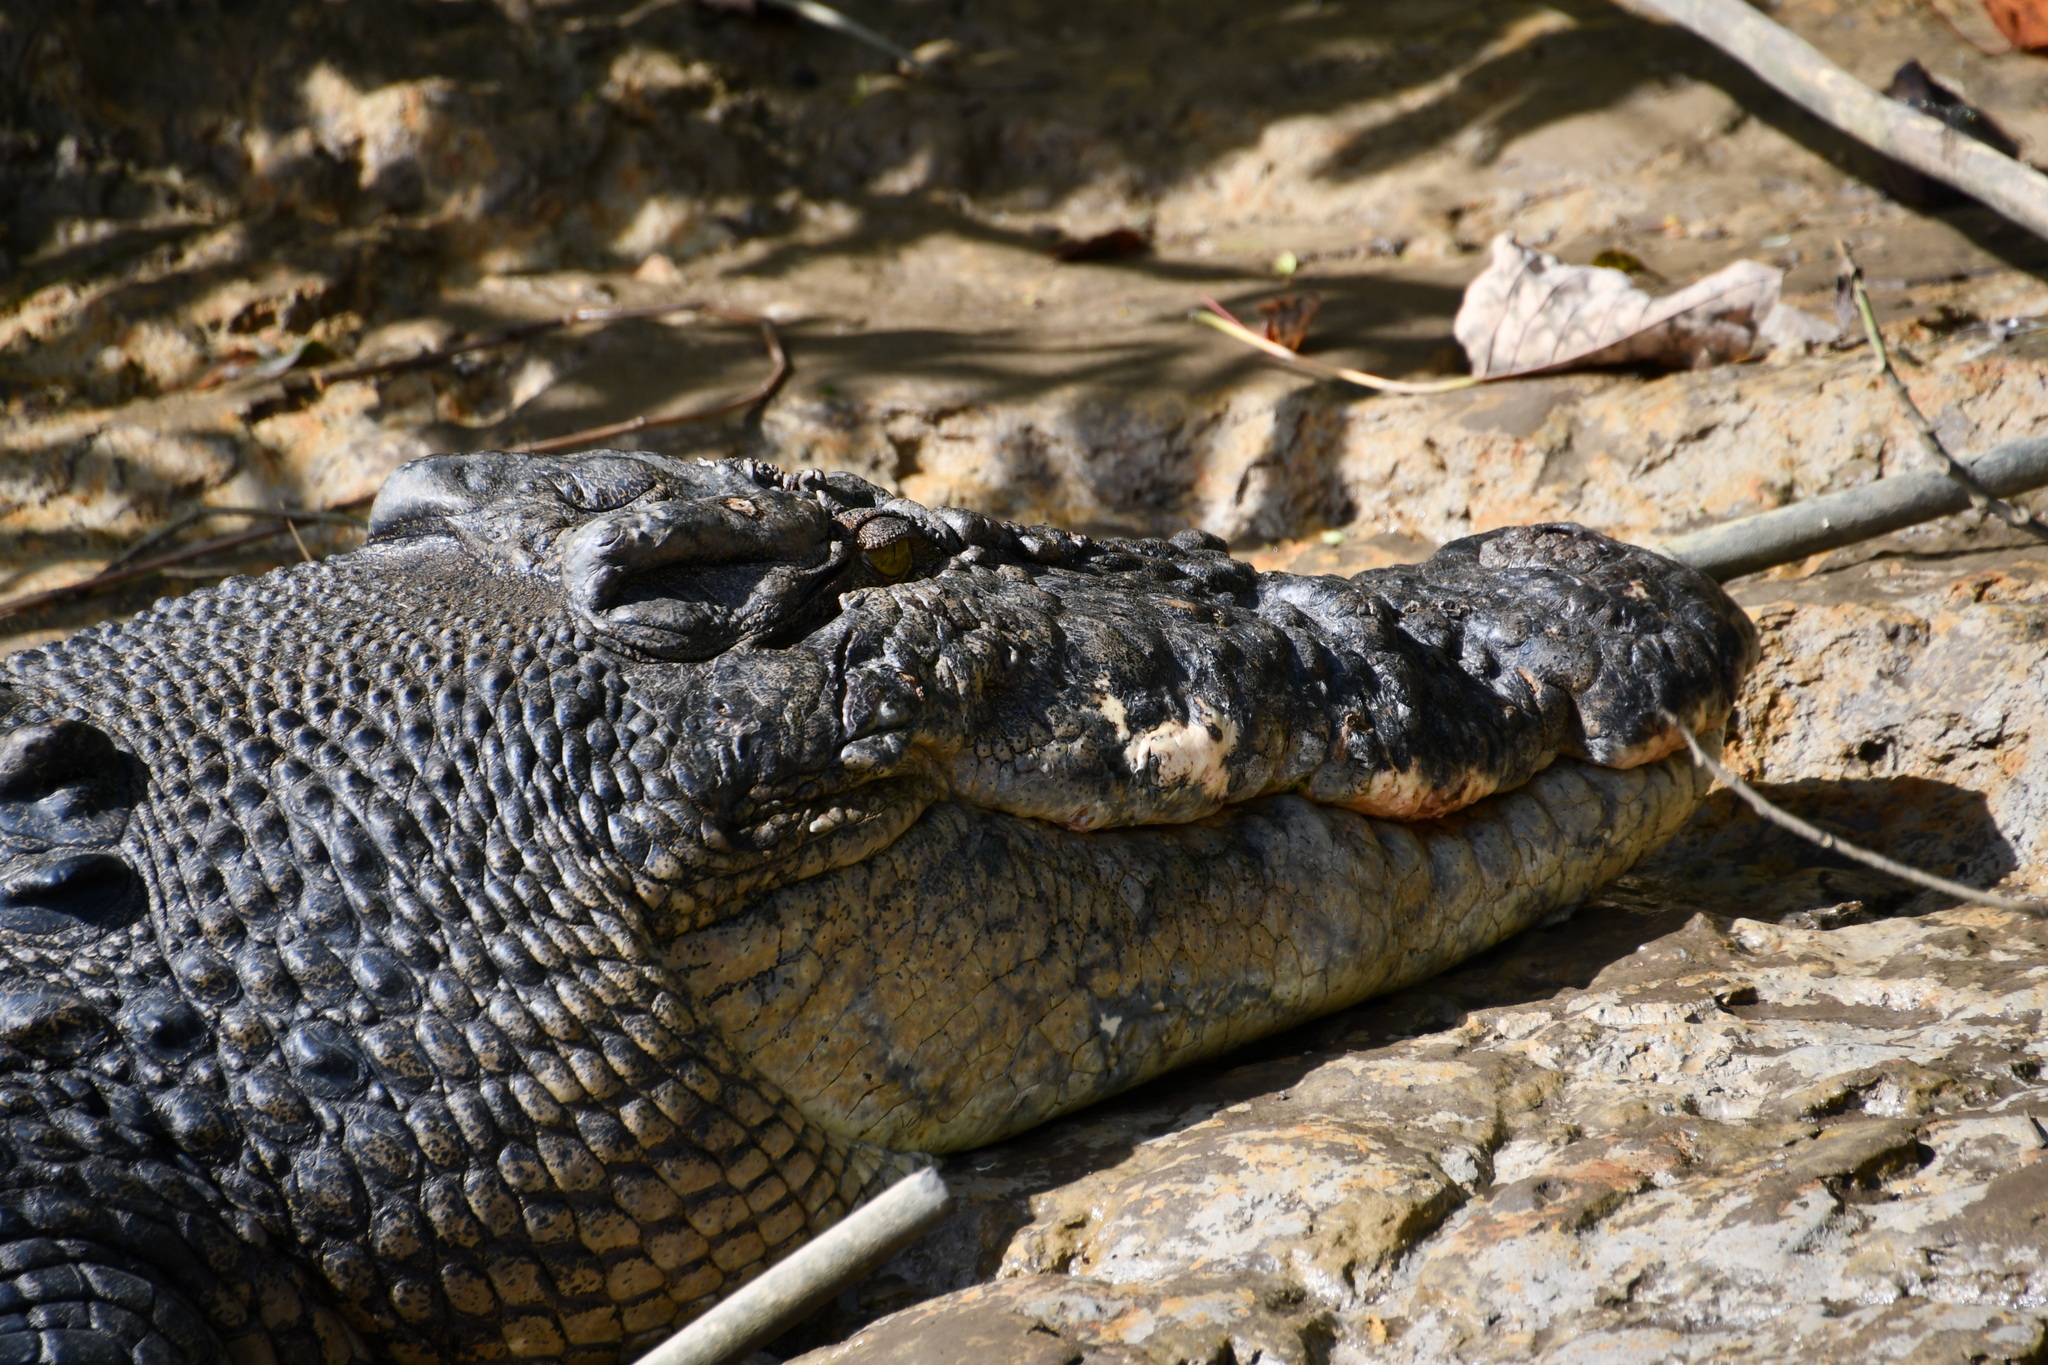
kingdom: Animalia
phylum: Chordata
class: Crocodylia
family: Crocodylidae
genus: Crocodylus
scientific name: Crocodylus porosus
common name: Saltwater crocodile
